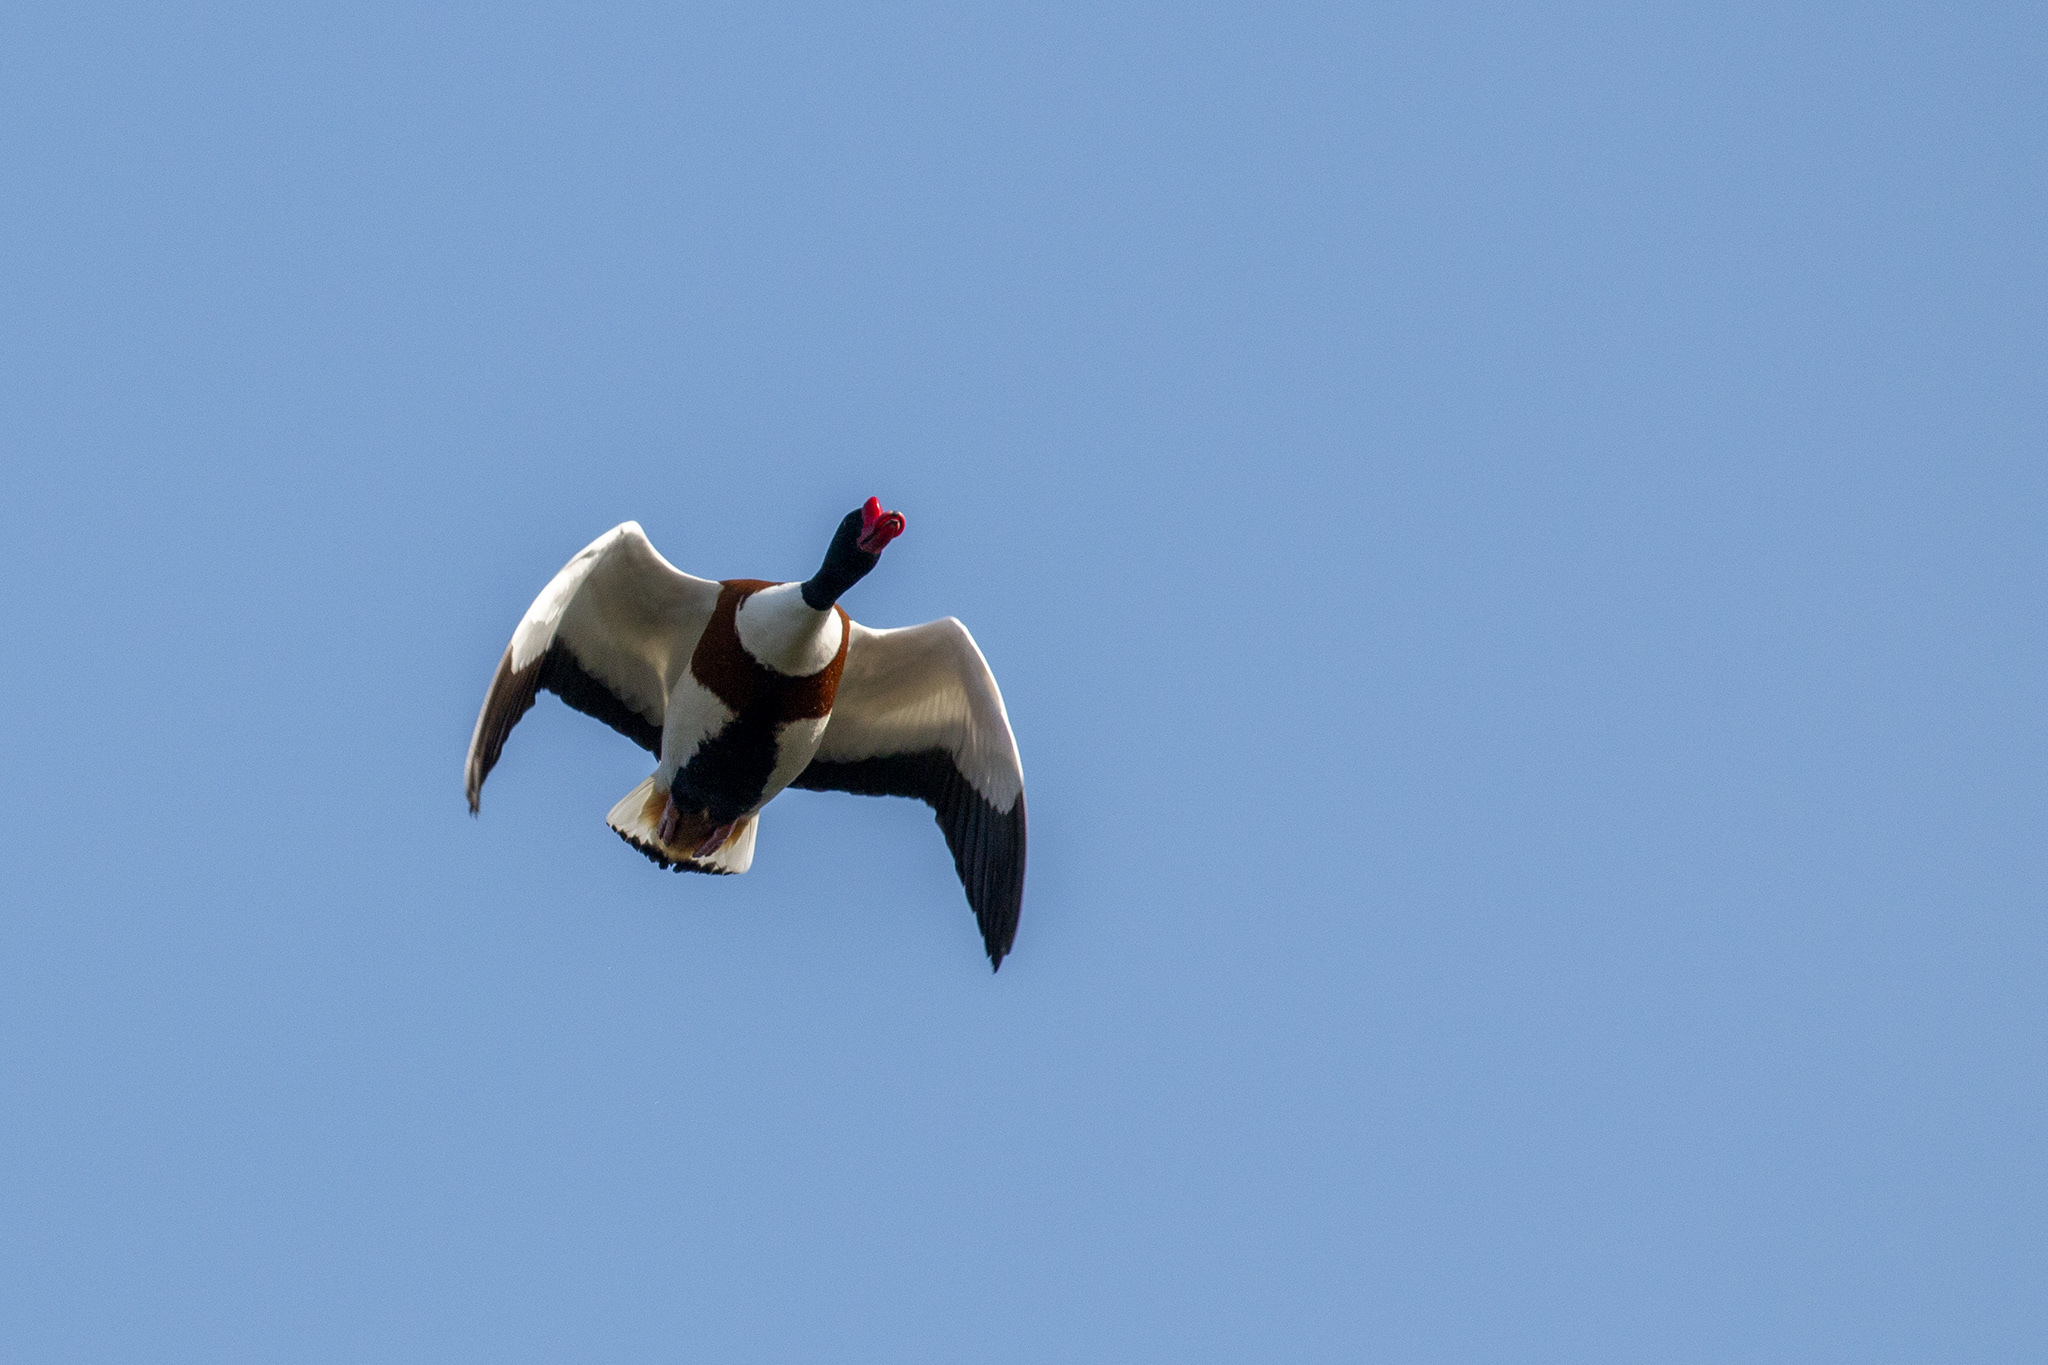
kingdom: Animalia
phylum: Chordata
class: Aves
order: Anseriformes
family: Anatidae
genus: Tadorna
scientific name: Tadorna tadorna
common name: Common shelduck
